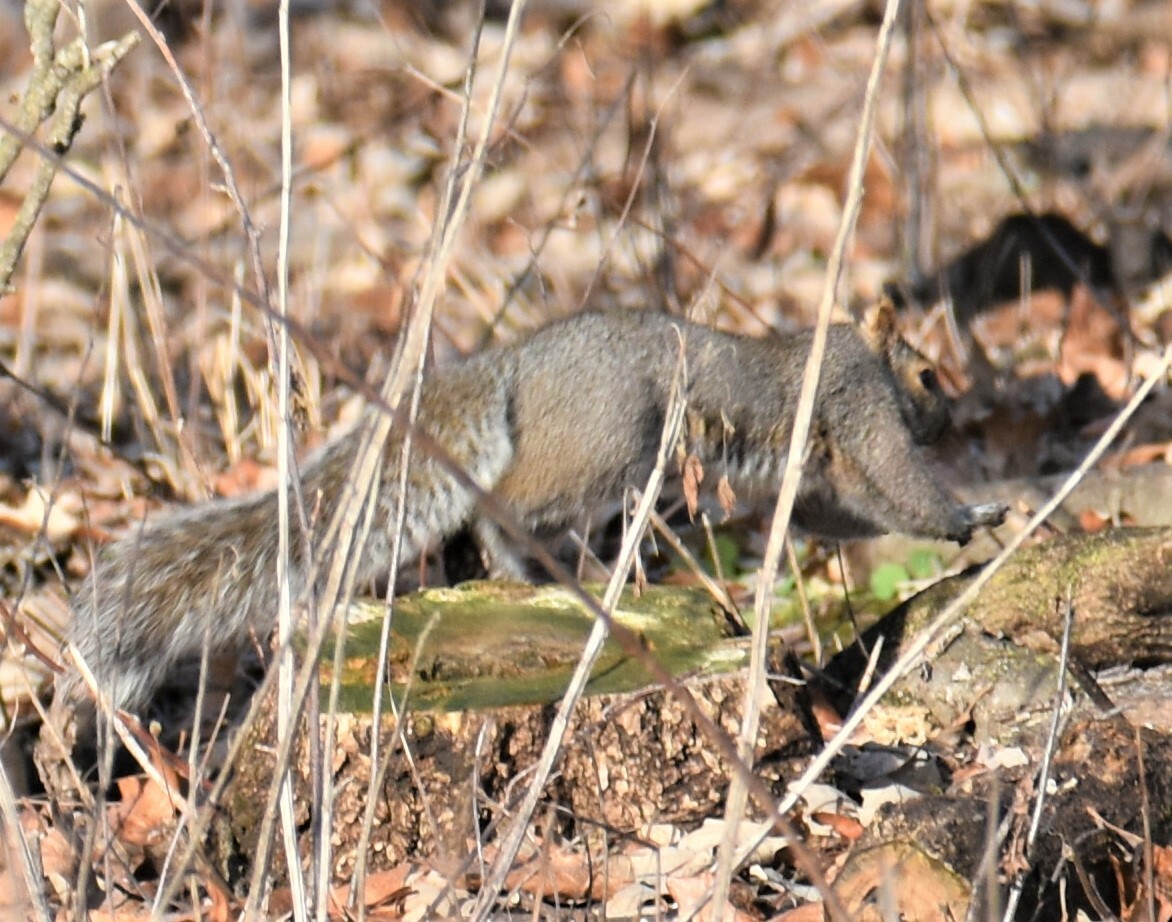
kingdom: Animalia
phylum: Chordata
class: Mammalia
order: Rodentia
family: Sciuridae
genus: Sciurus
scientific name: Sciurus carolinensis
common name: Eastern gray squirrel
